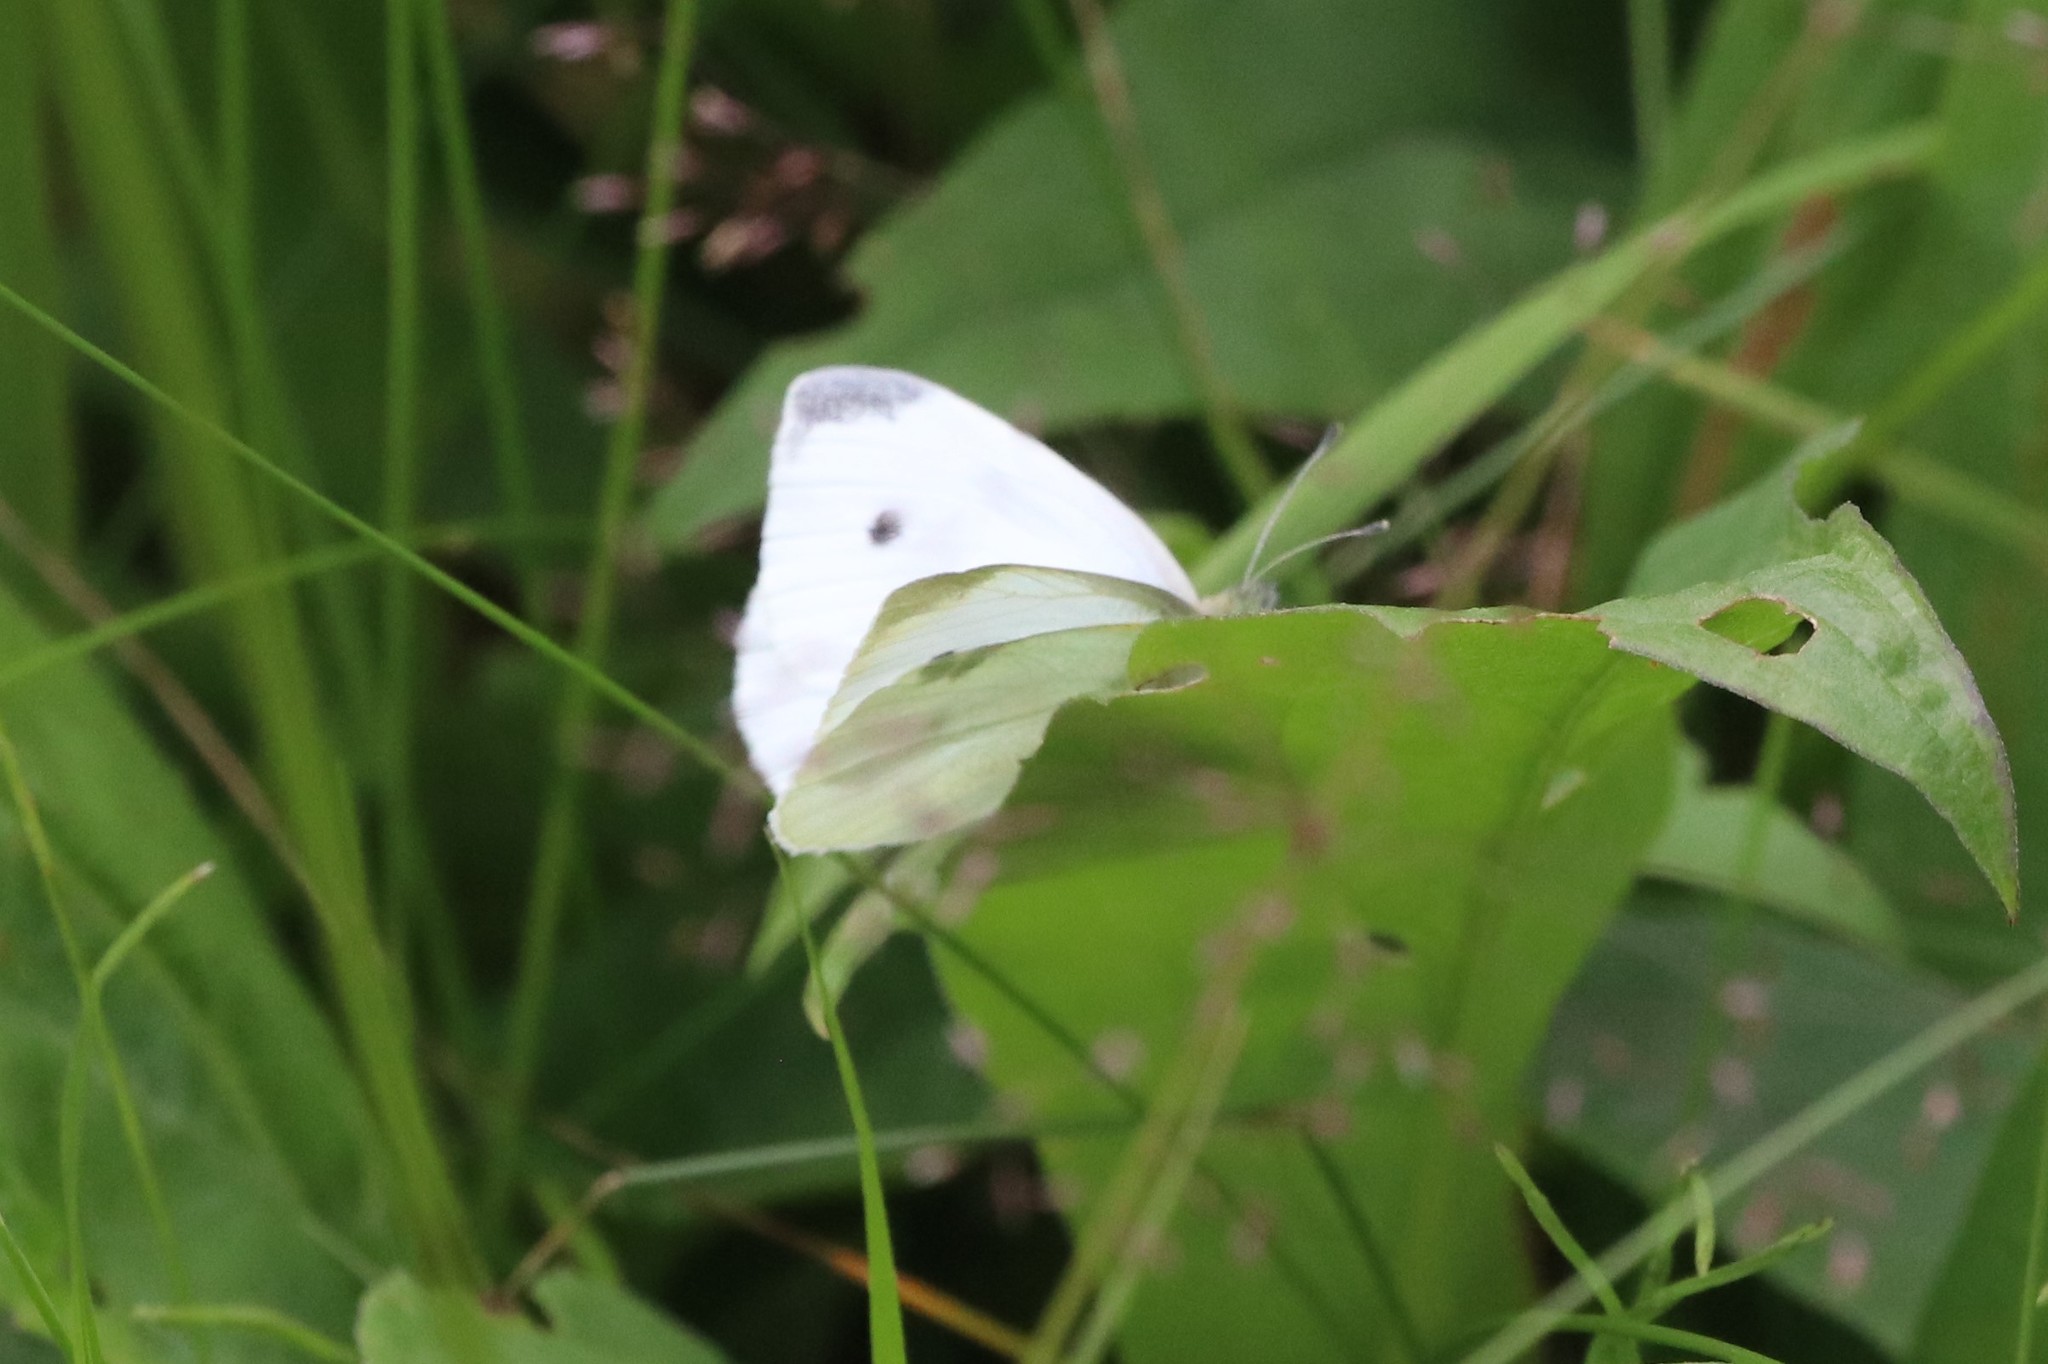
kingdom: Animalia
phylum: Arthropoda
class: Insecta
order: Lepidoptera
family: Pieridae
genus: Pieris
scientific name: Pieris rapae
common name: Small white
